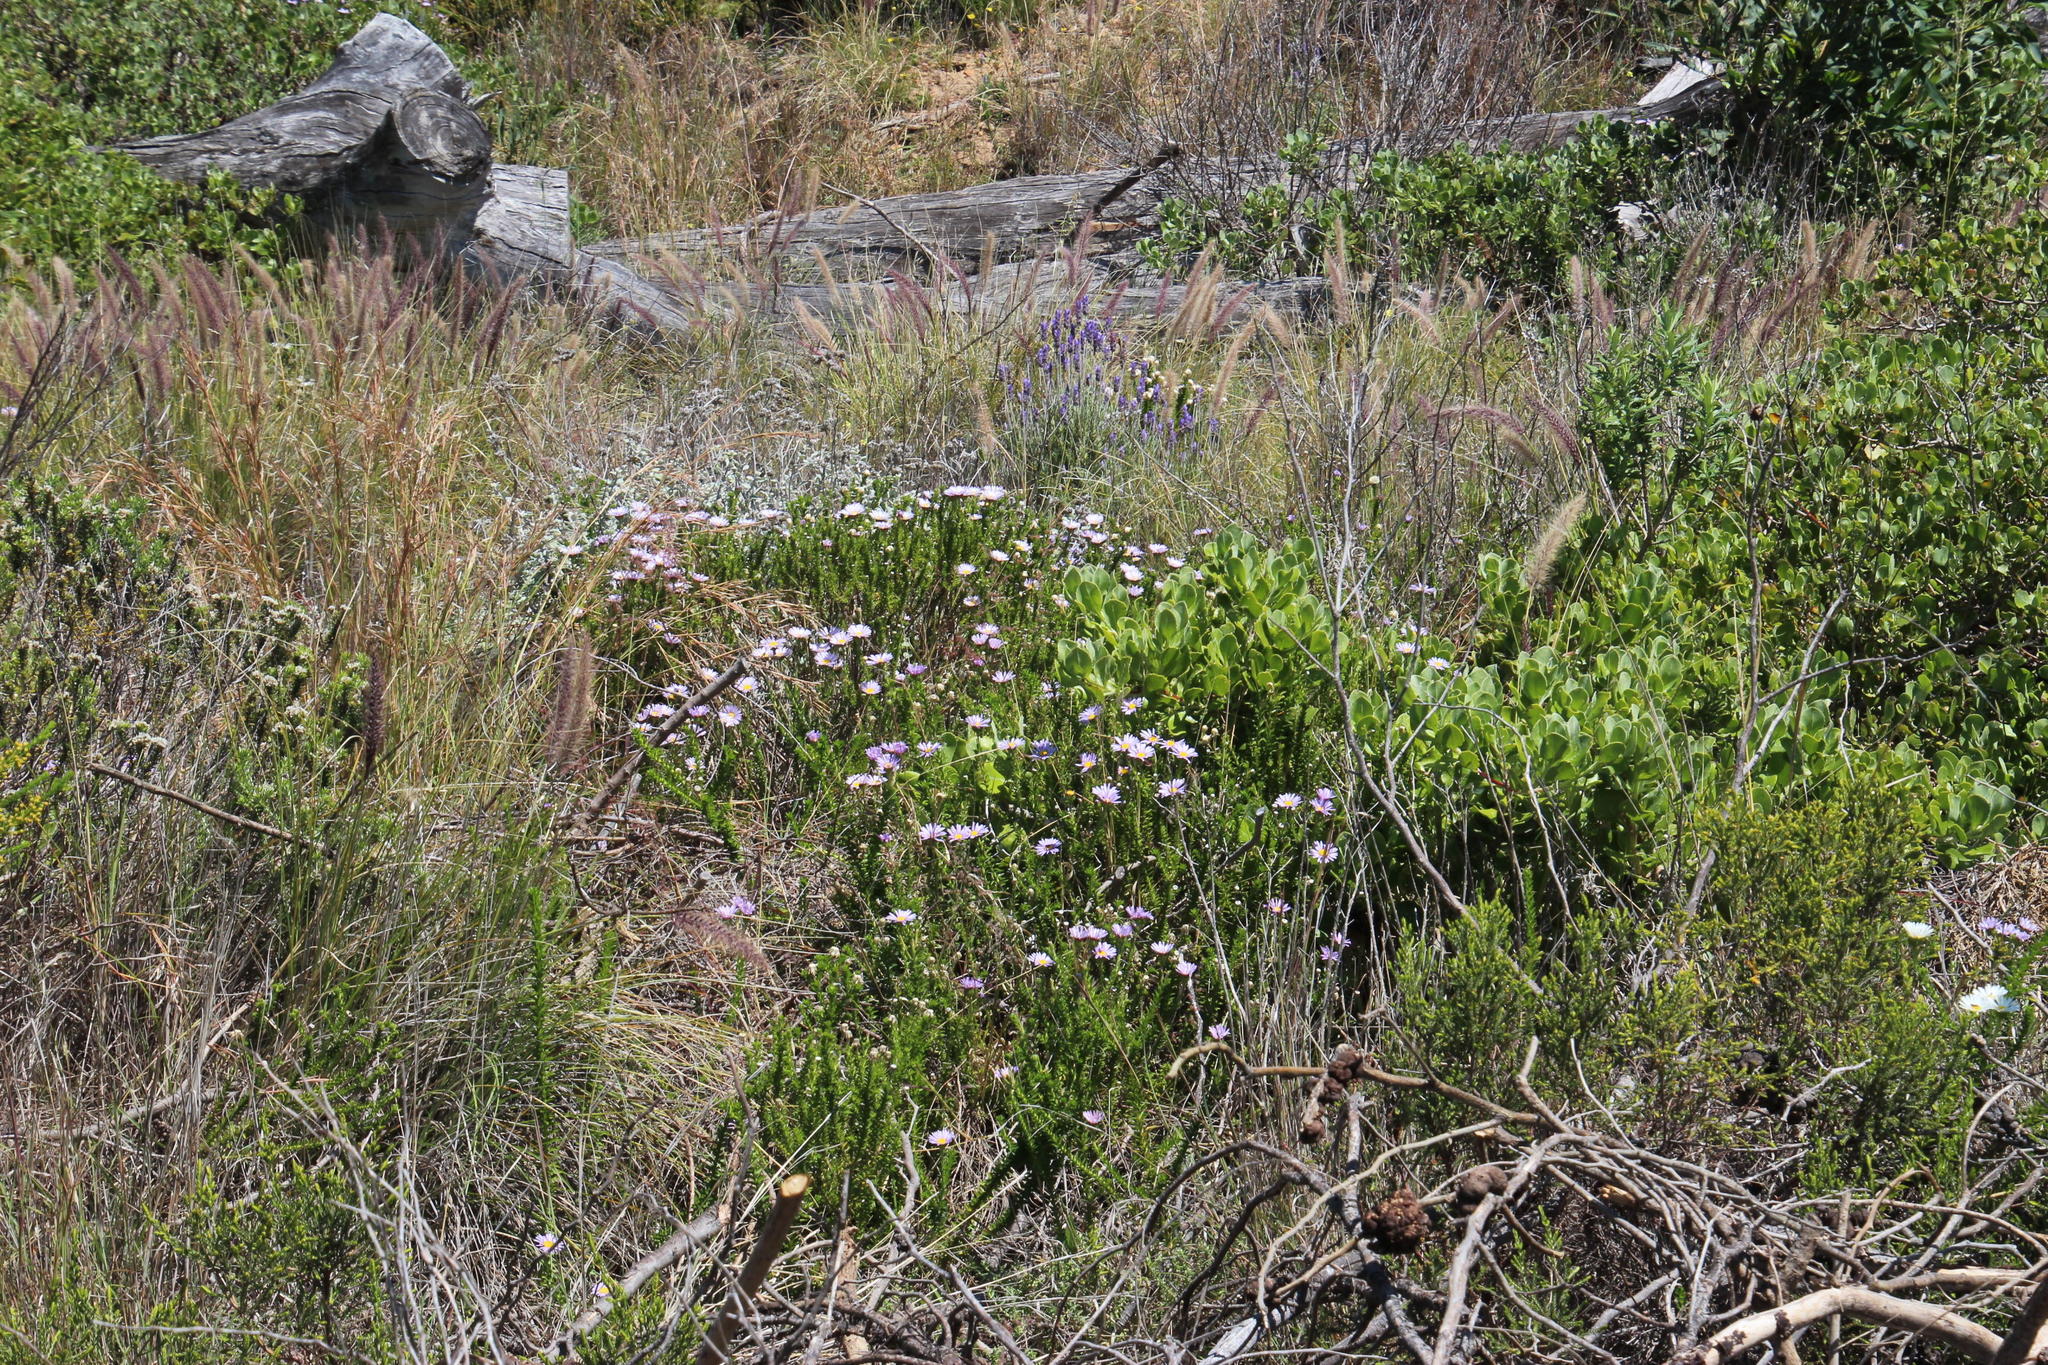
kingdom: Plantae
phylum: Tracheophyta
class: Magnoliopsida
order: Asterales
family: Asteraceae
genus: Felicia
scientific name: Felicia echinata
